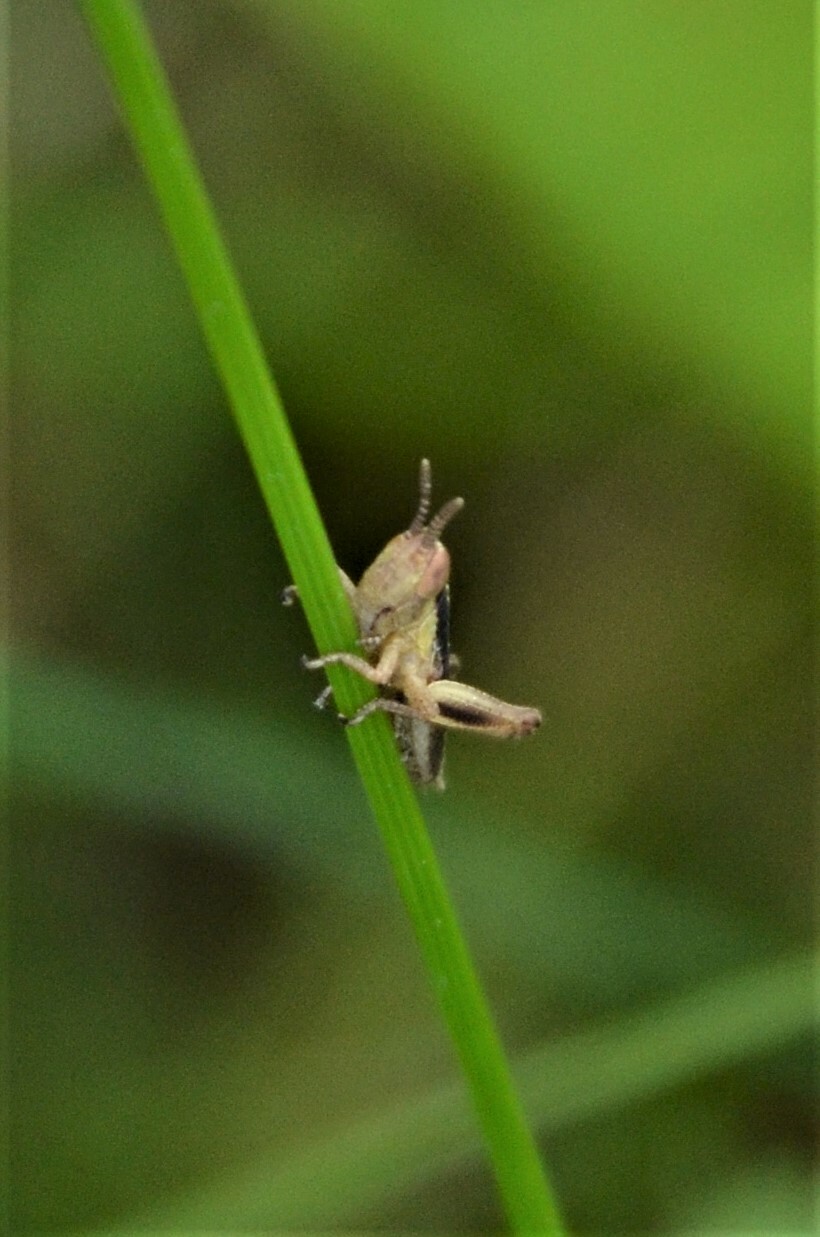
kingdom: Animalia
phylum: Arthropoda
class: Insecta
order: Orthoptera
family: Acrididae
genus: Pseudochorthippus
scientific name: Pseudochorthippus parallelus
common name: Meadow grasshopper
